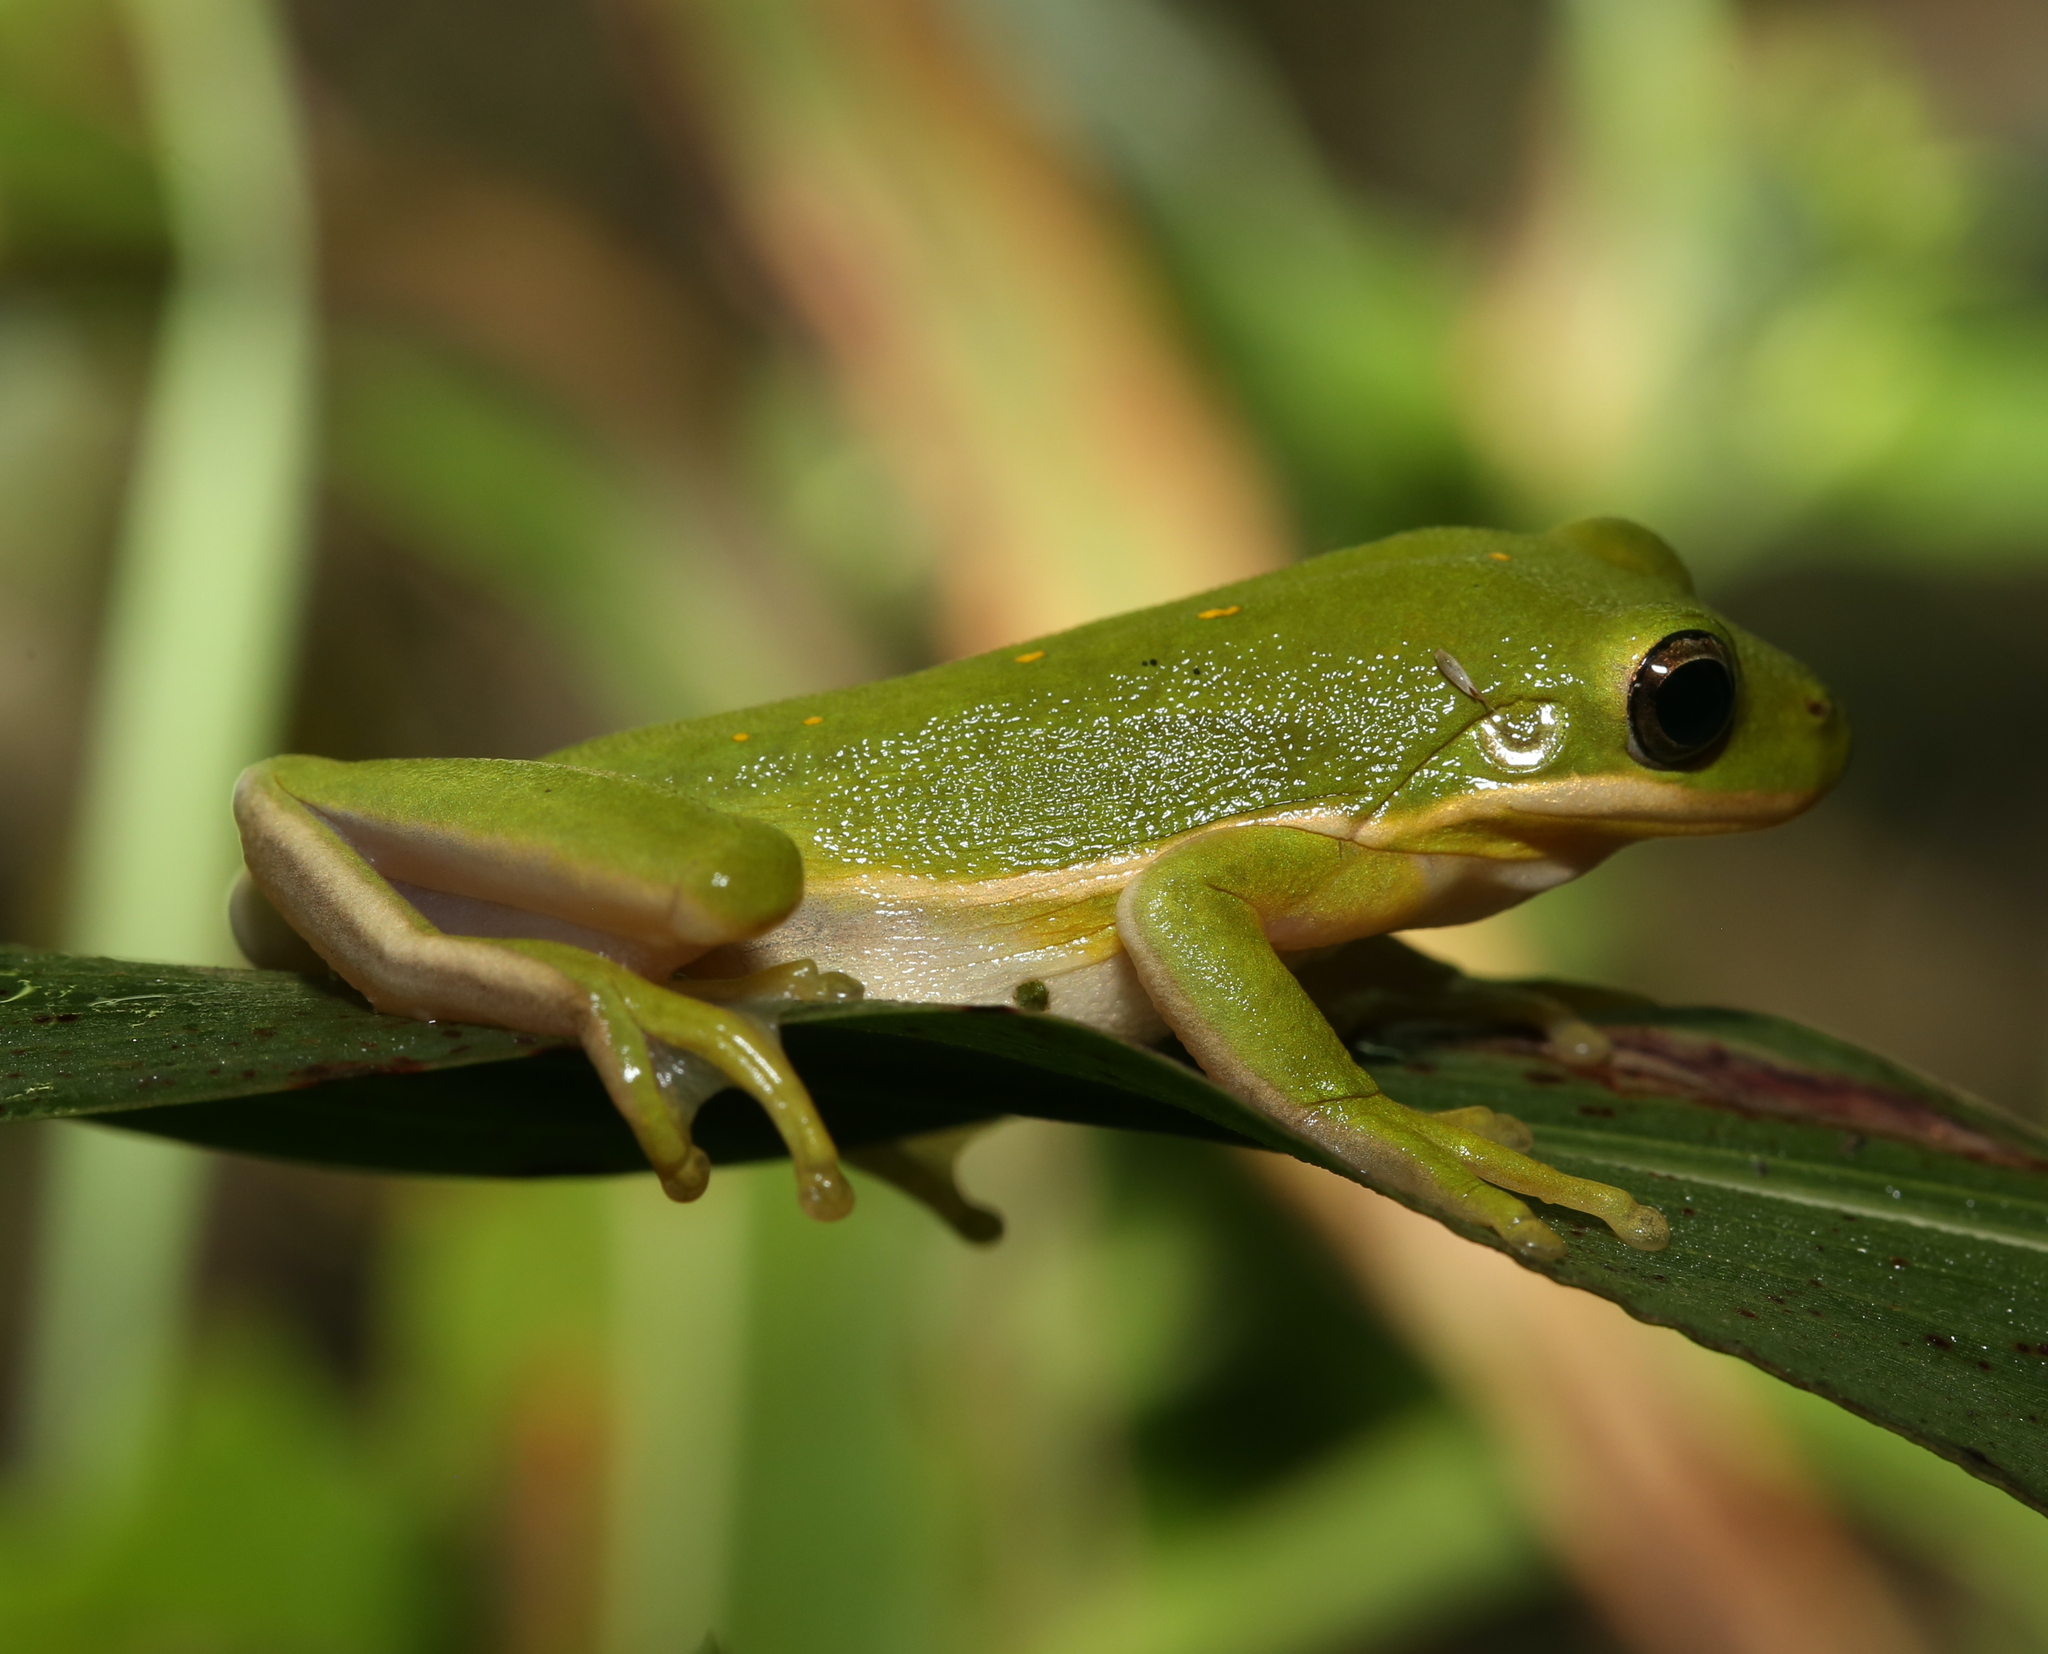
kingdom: Animalia
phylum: Chordata
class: Amphibia
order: Anura
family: Hylidae
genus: Dryophytes
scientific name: Dryophytes cinereus
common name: Green treefrog
